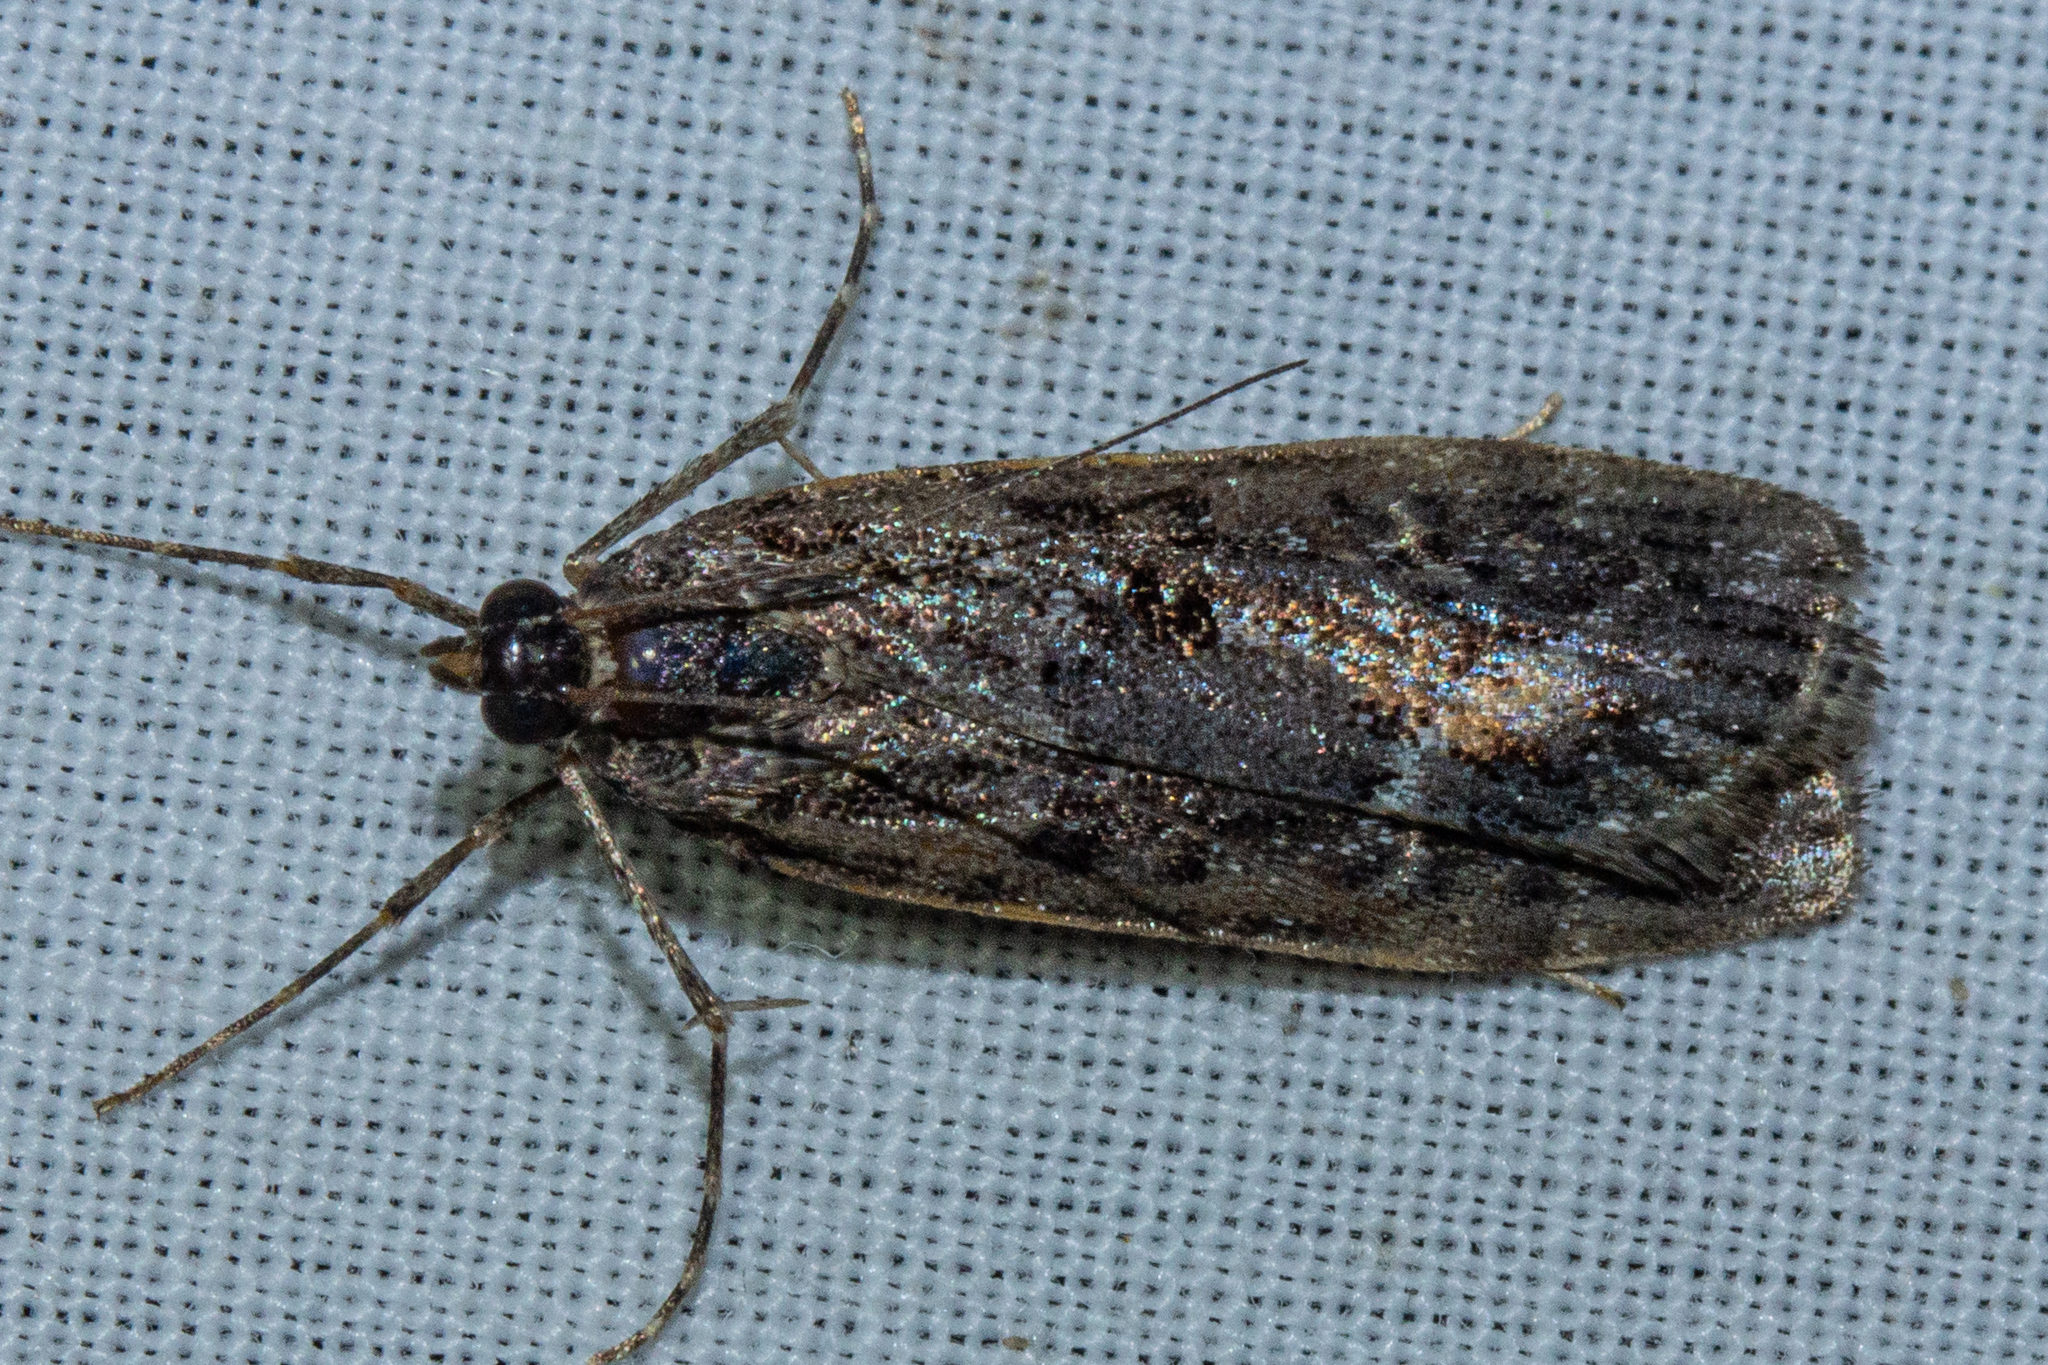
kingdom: Animalia
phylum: Arthropoda
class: Insecta
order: Lepidoptera
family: Crambidae
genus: Eudonia
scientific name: Eudonia submarginalis
